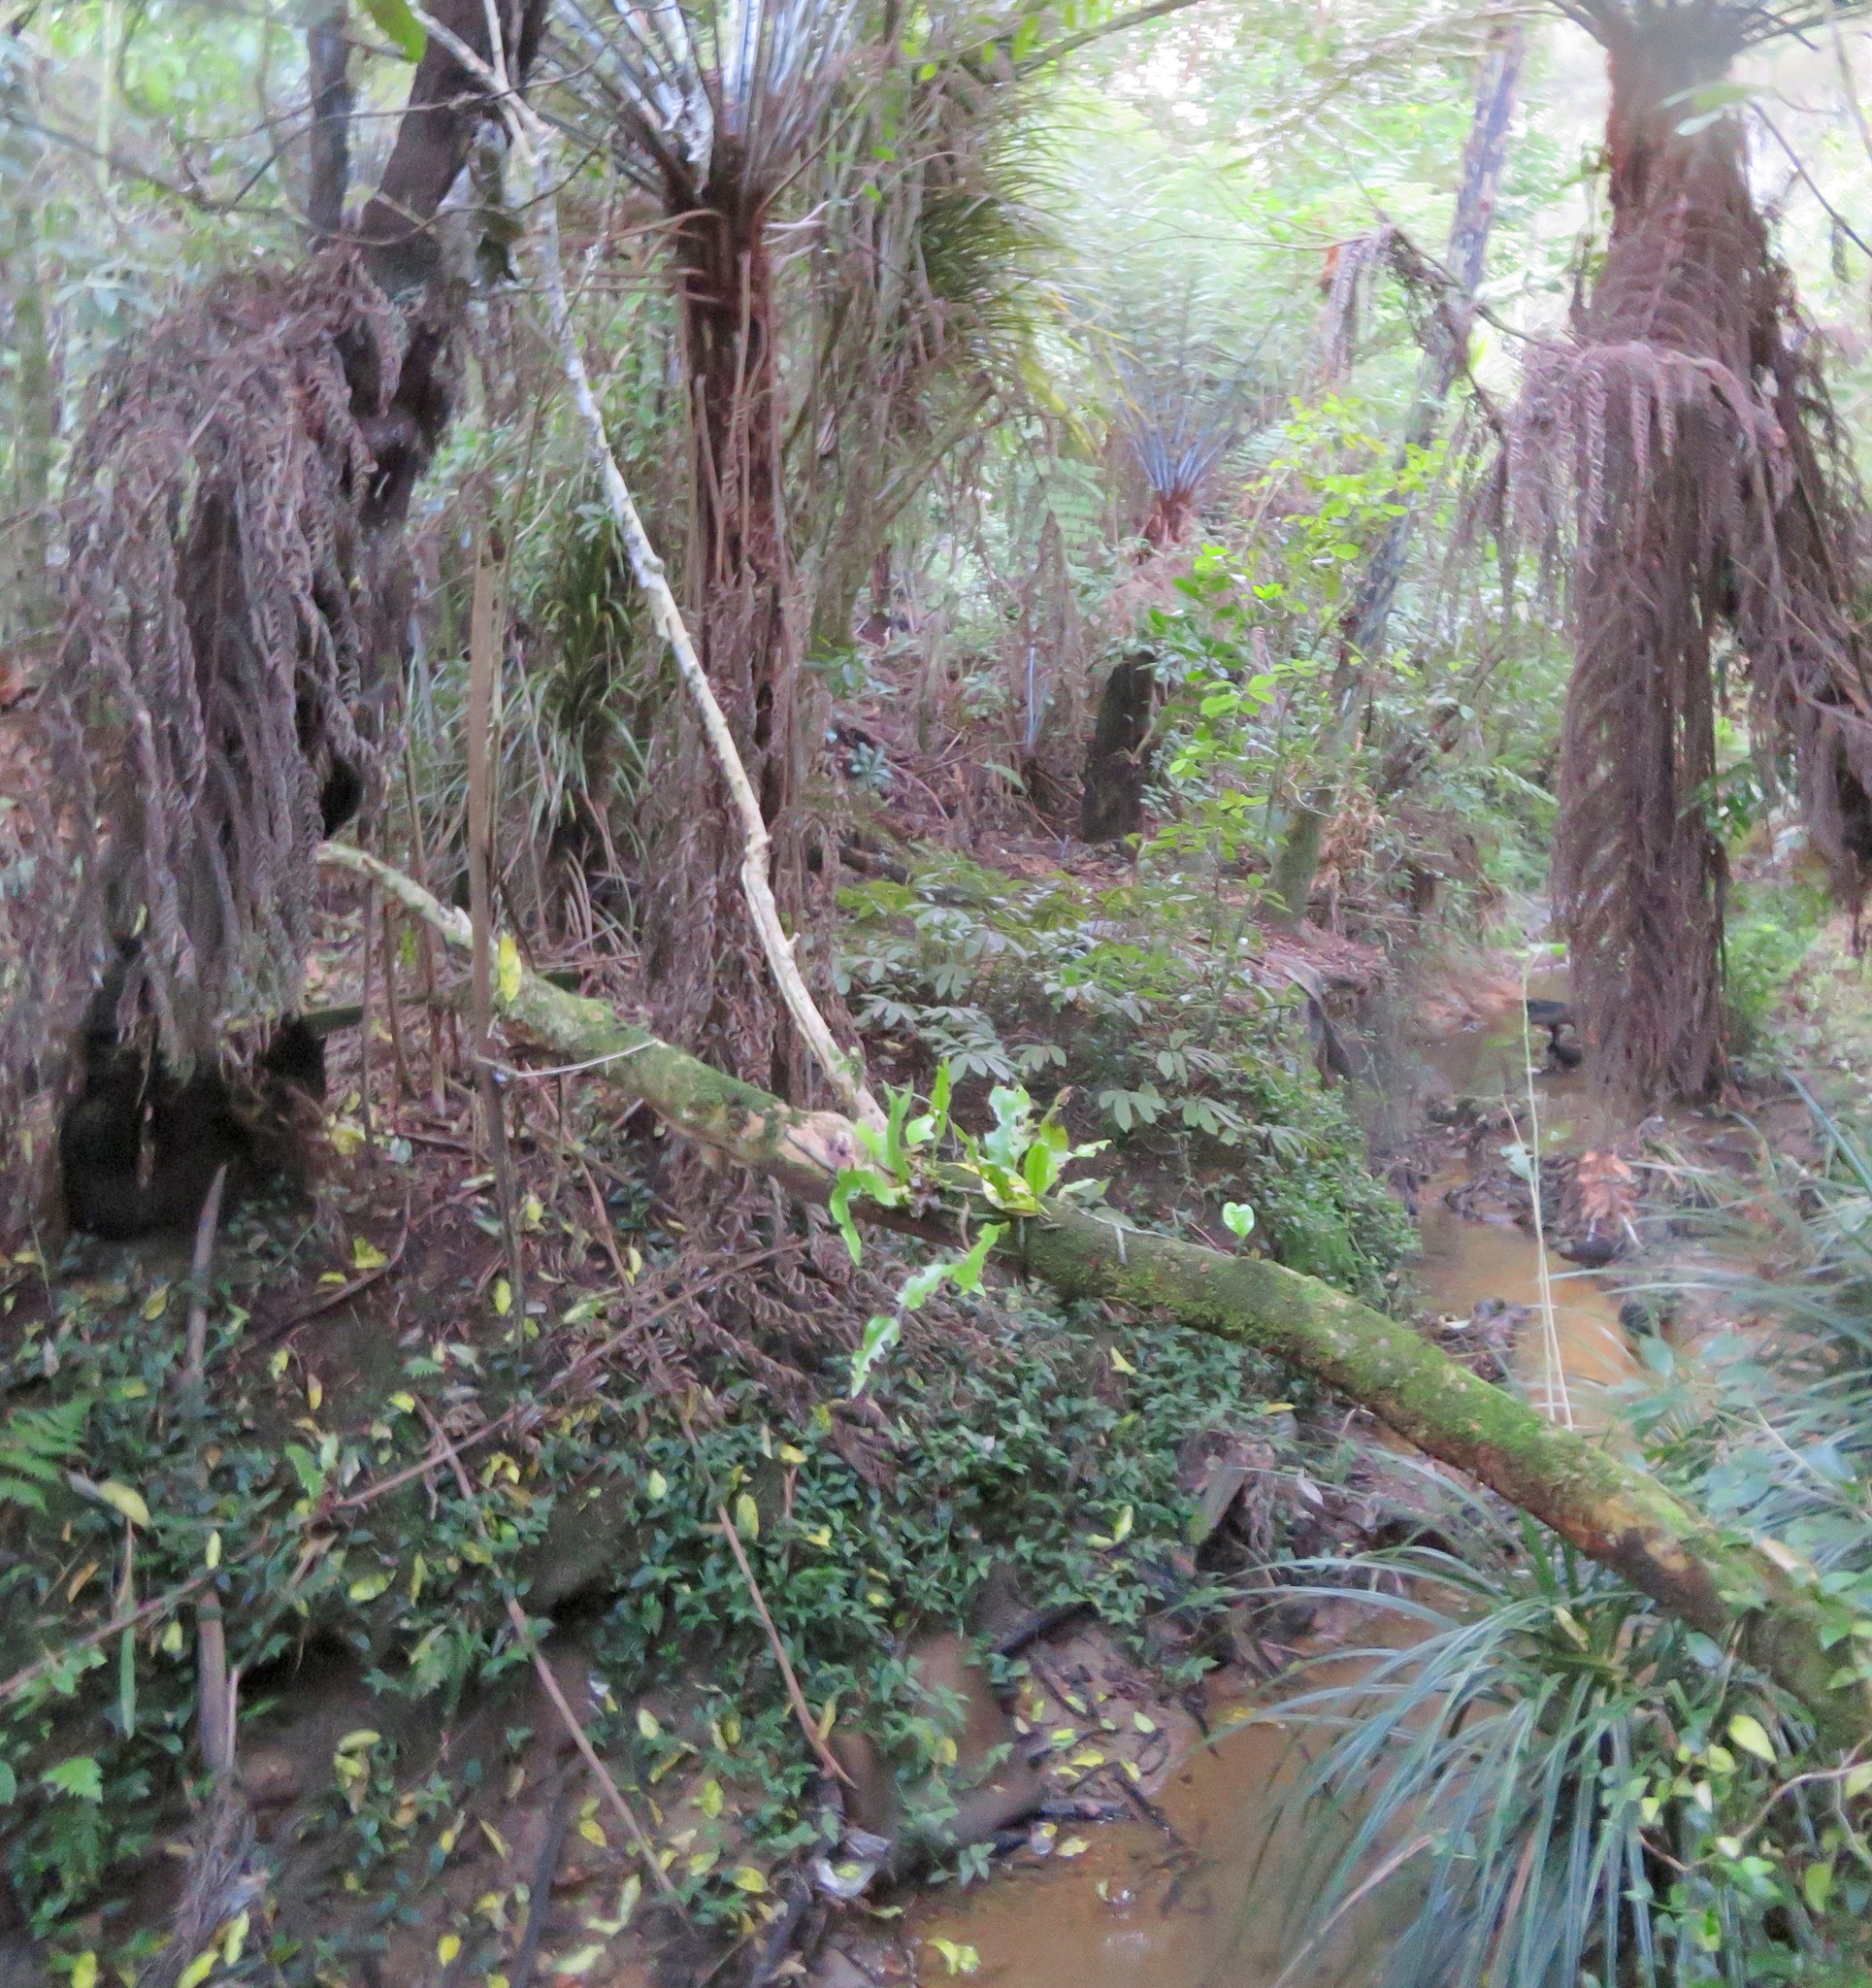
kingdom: Plantae
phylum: Tracheophyta
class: Polypodiopsida
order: Polypodiales
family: Polypodiaceae
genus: Lecanopteris
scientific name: Lecanopteris pustulata
